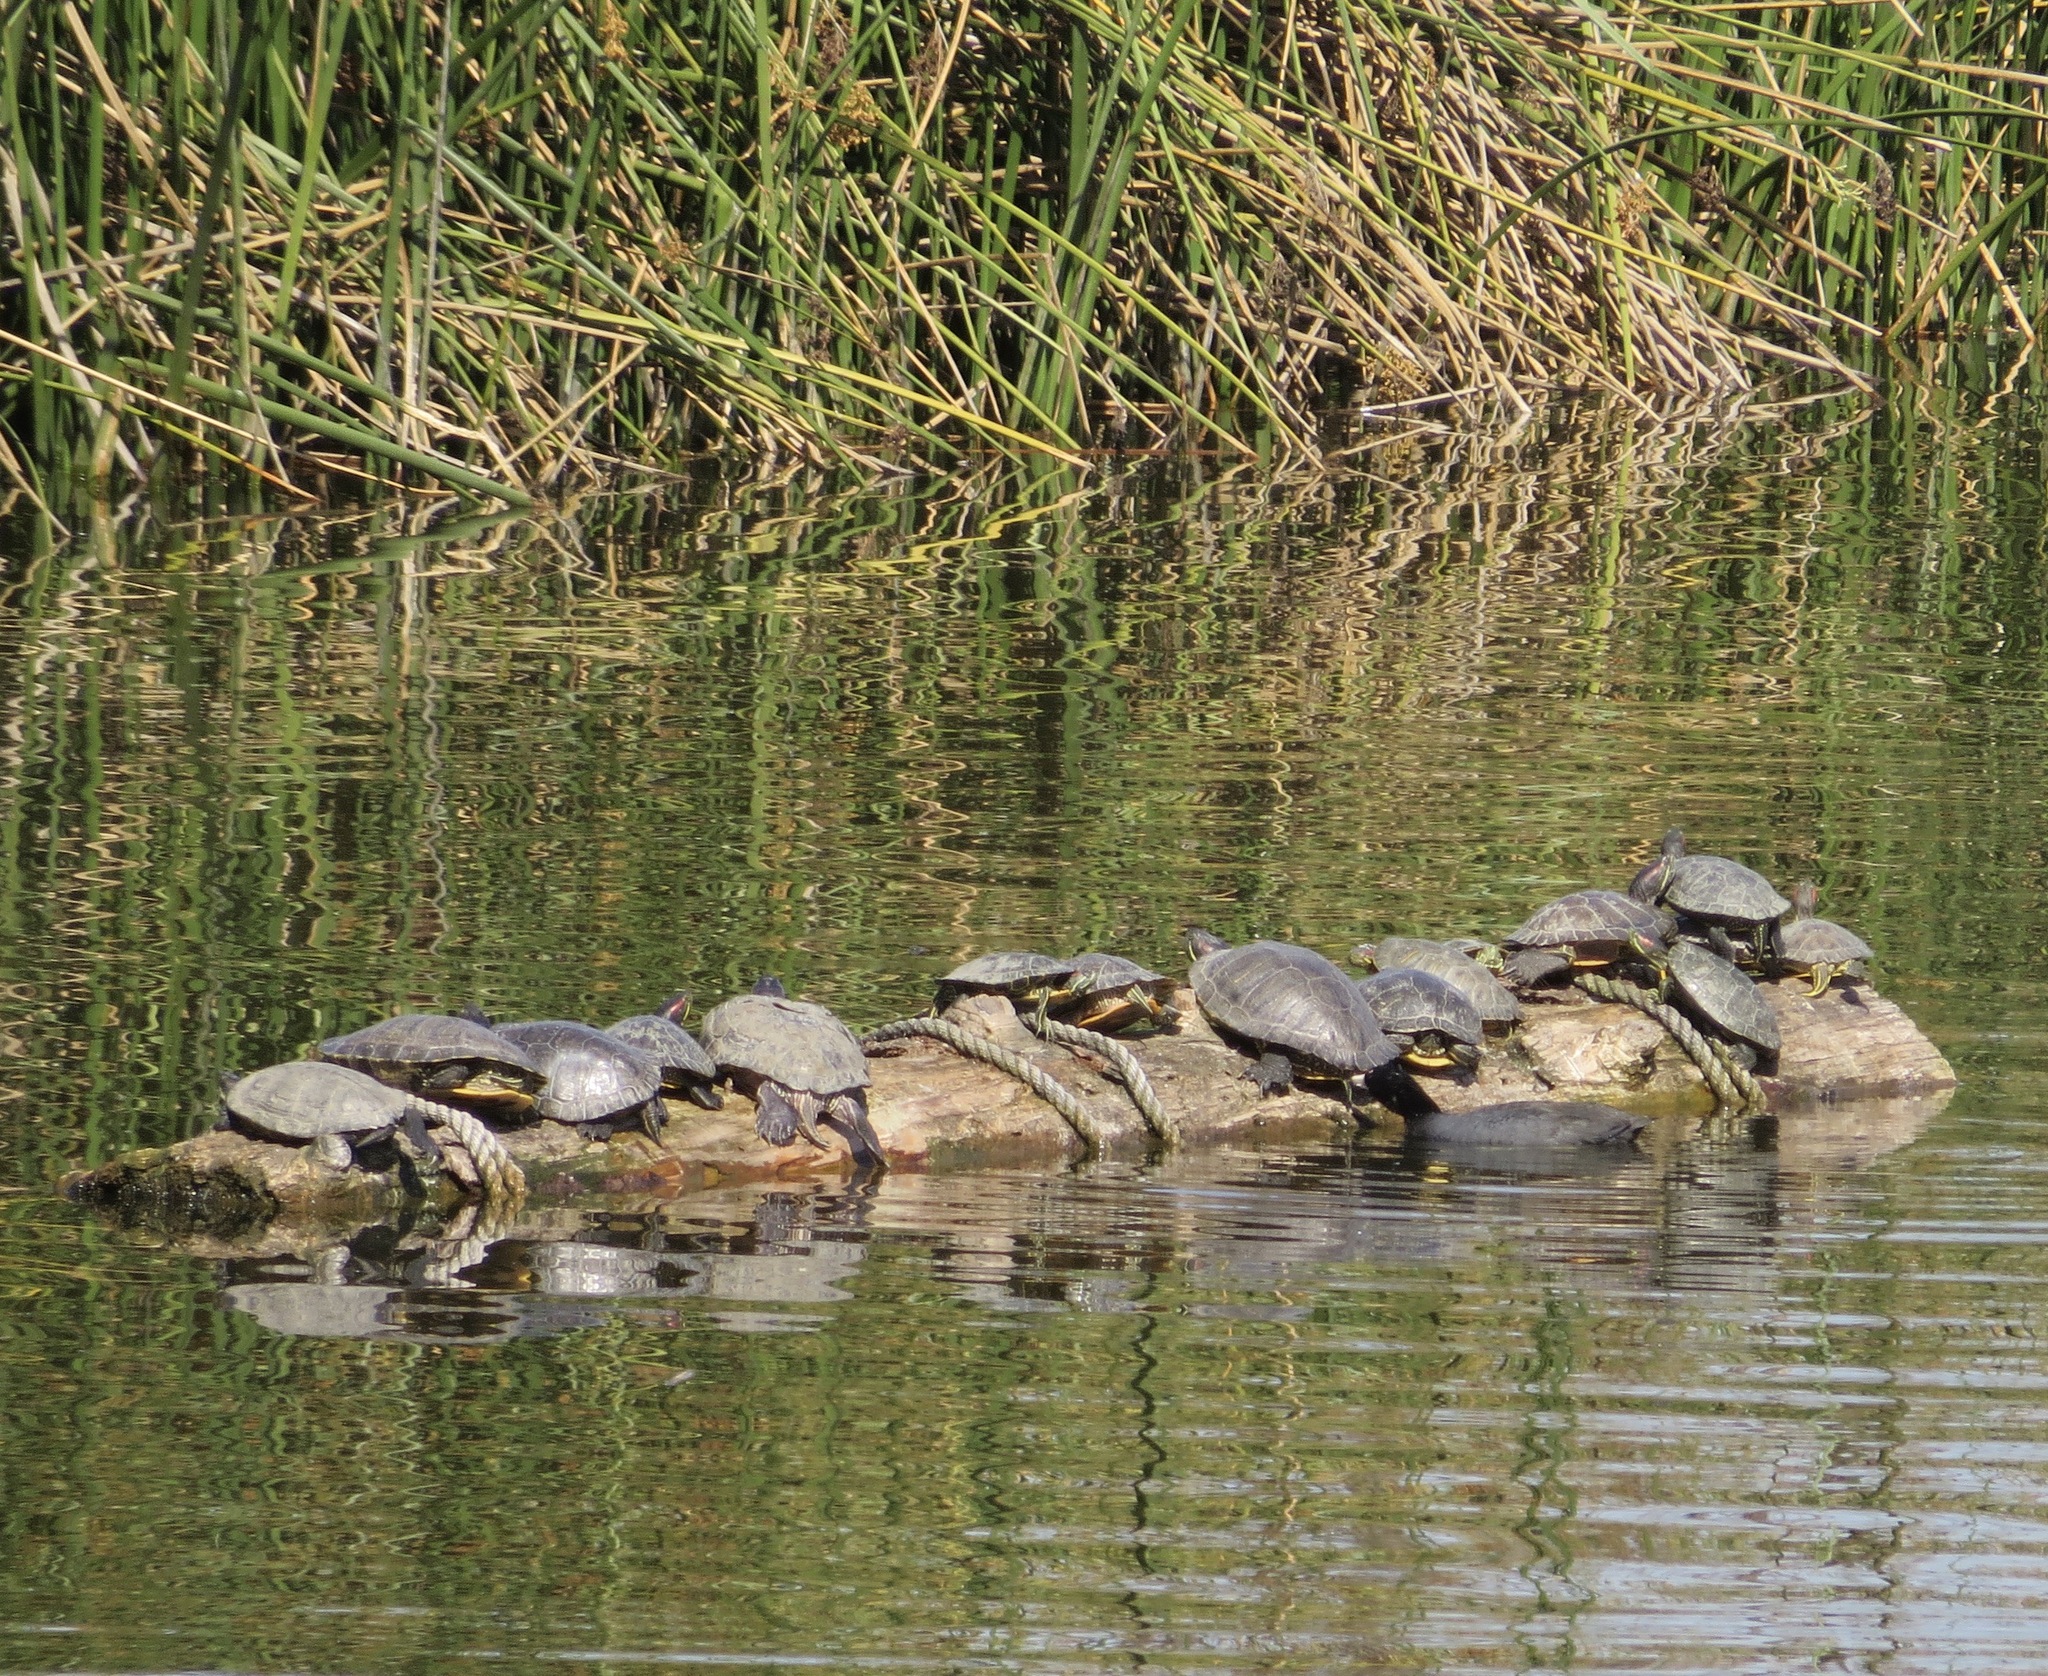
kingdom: Animalia
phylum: Chordata
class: Testudines
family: Emydidae
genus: Trachemys
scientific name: Trachemys scripta
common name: Slider
